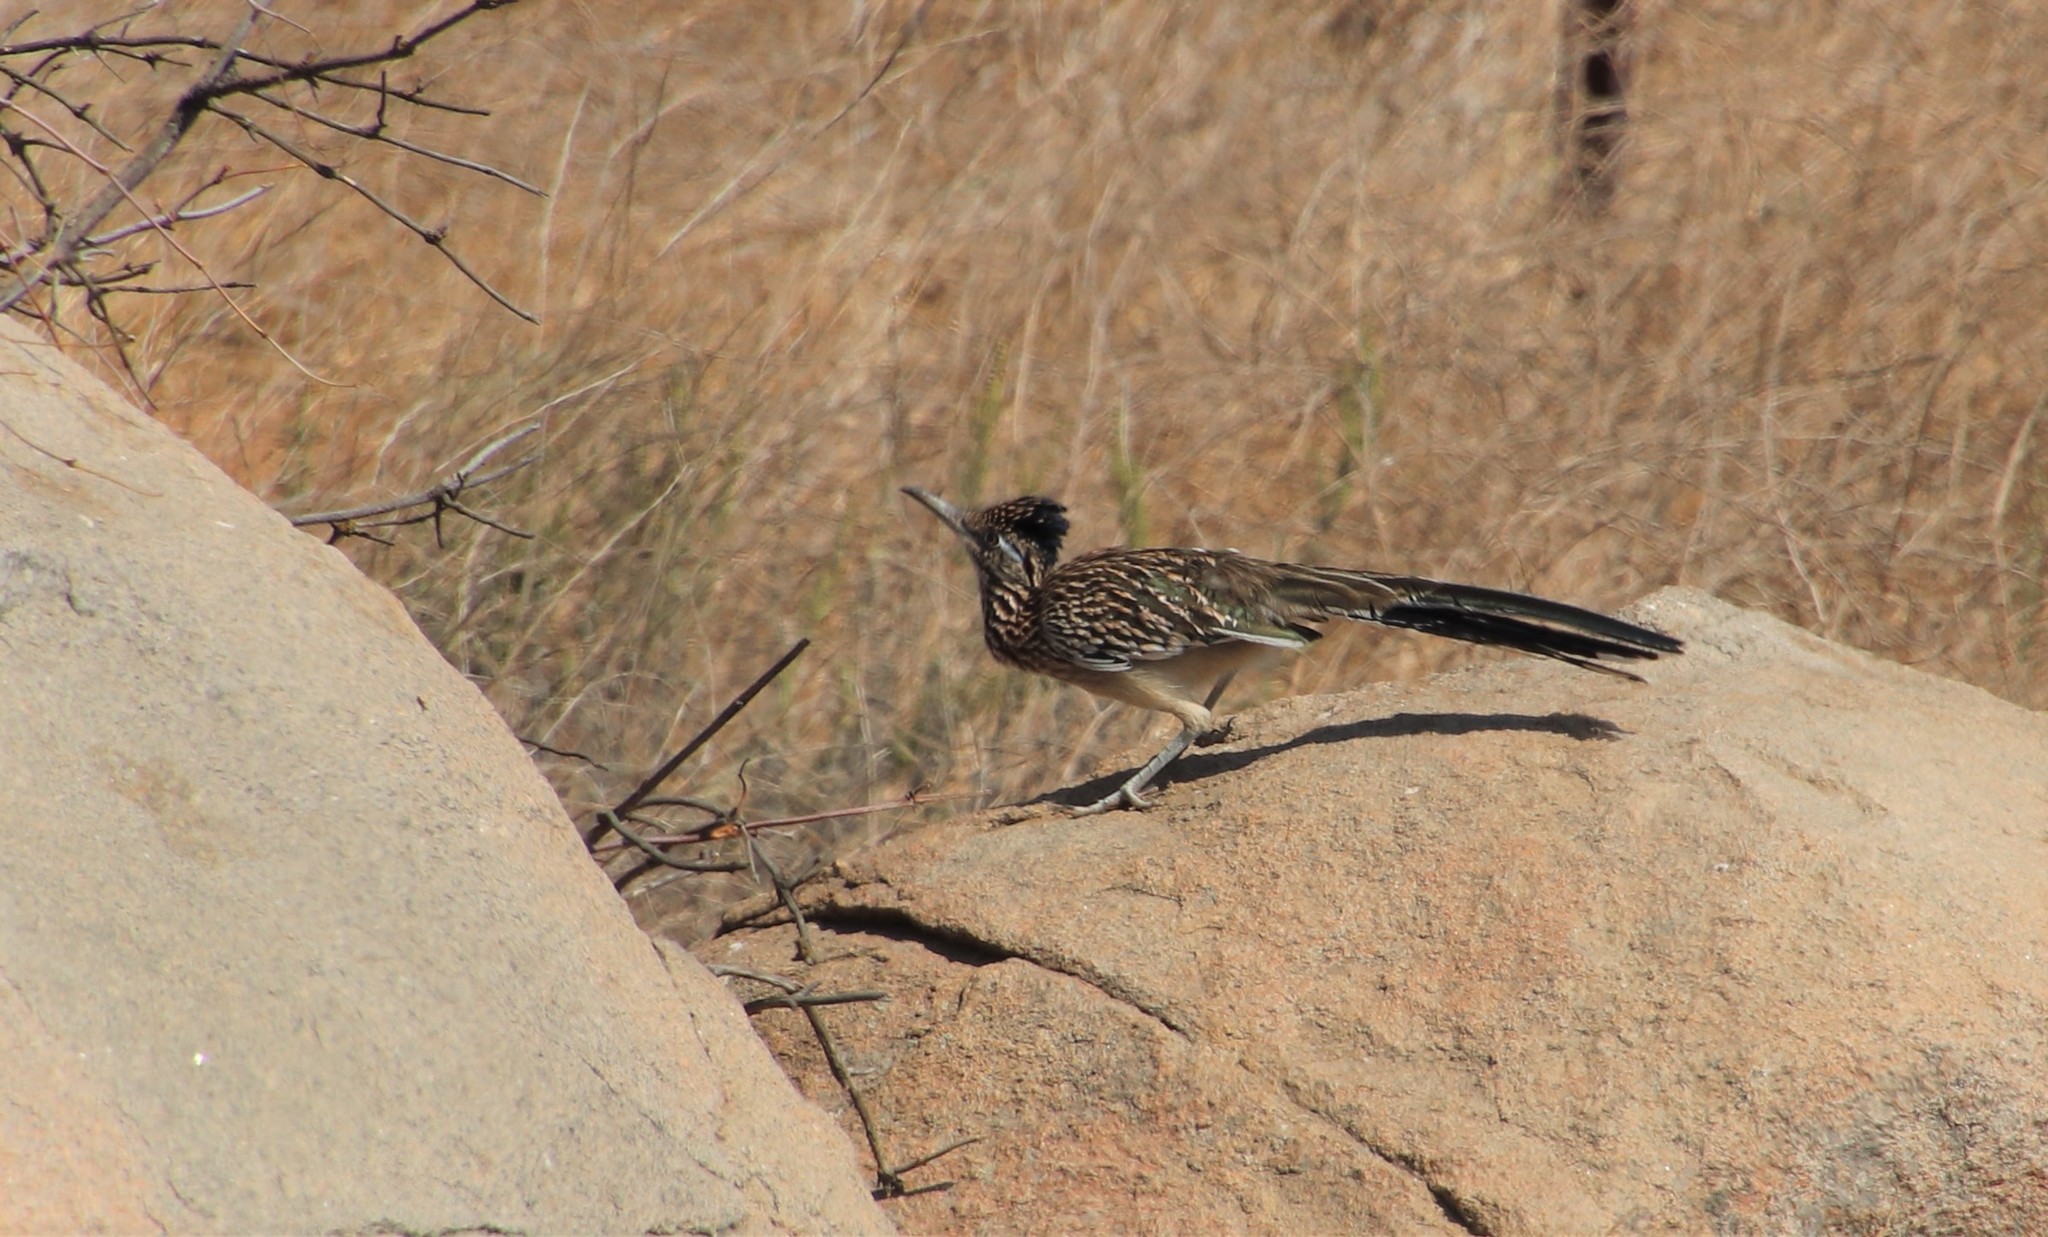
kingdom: Animalia
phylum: Chordata
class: Aves
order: Cuculiformes
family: Cuculidae
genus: Geococcyx
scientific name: Geococcyx californianus
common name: Greater roadrunner
